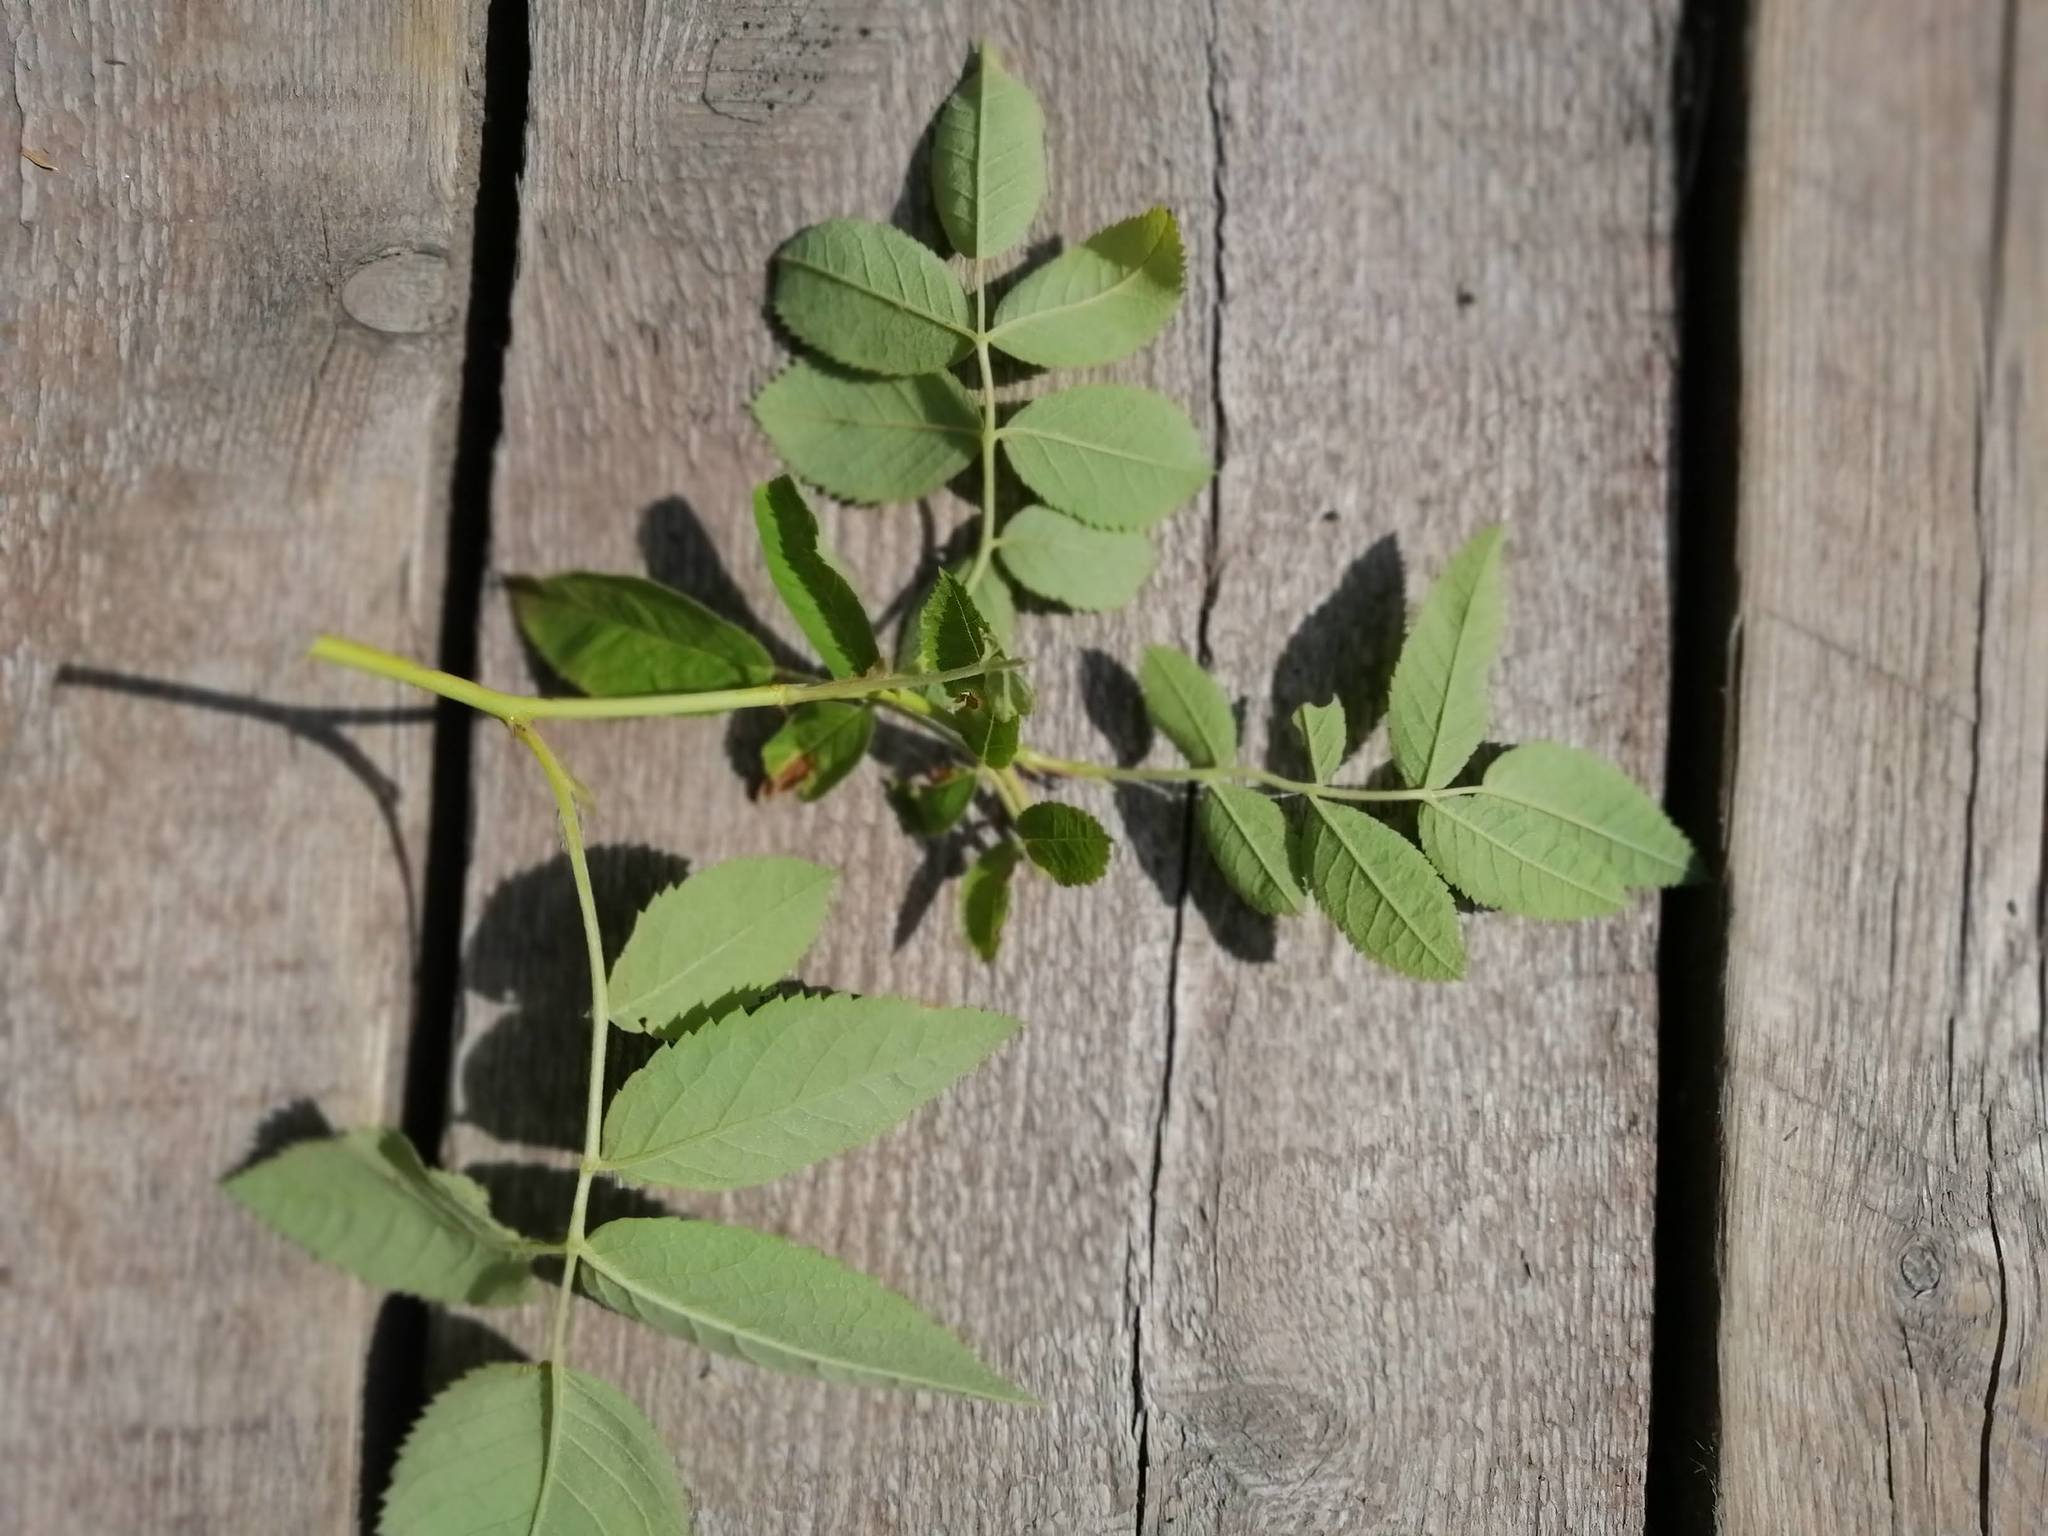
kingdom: Plantae
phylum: Tracheophyta
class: Magnoliopsida
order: Rosales
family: Rosaceae
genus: Rosa
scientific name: Rosa acicularis
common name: Prickly rose
